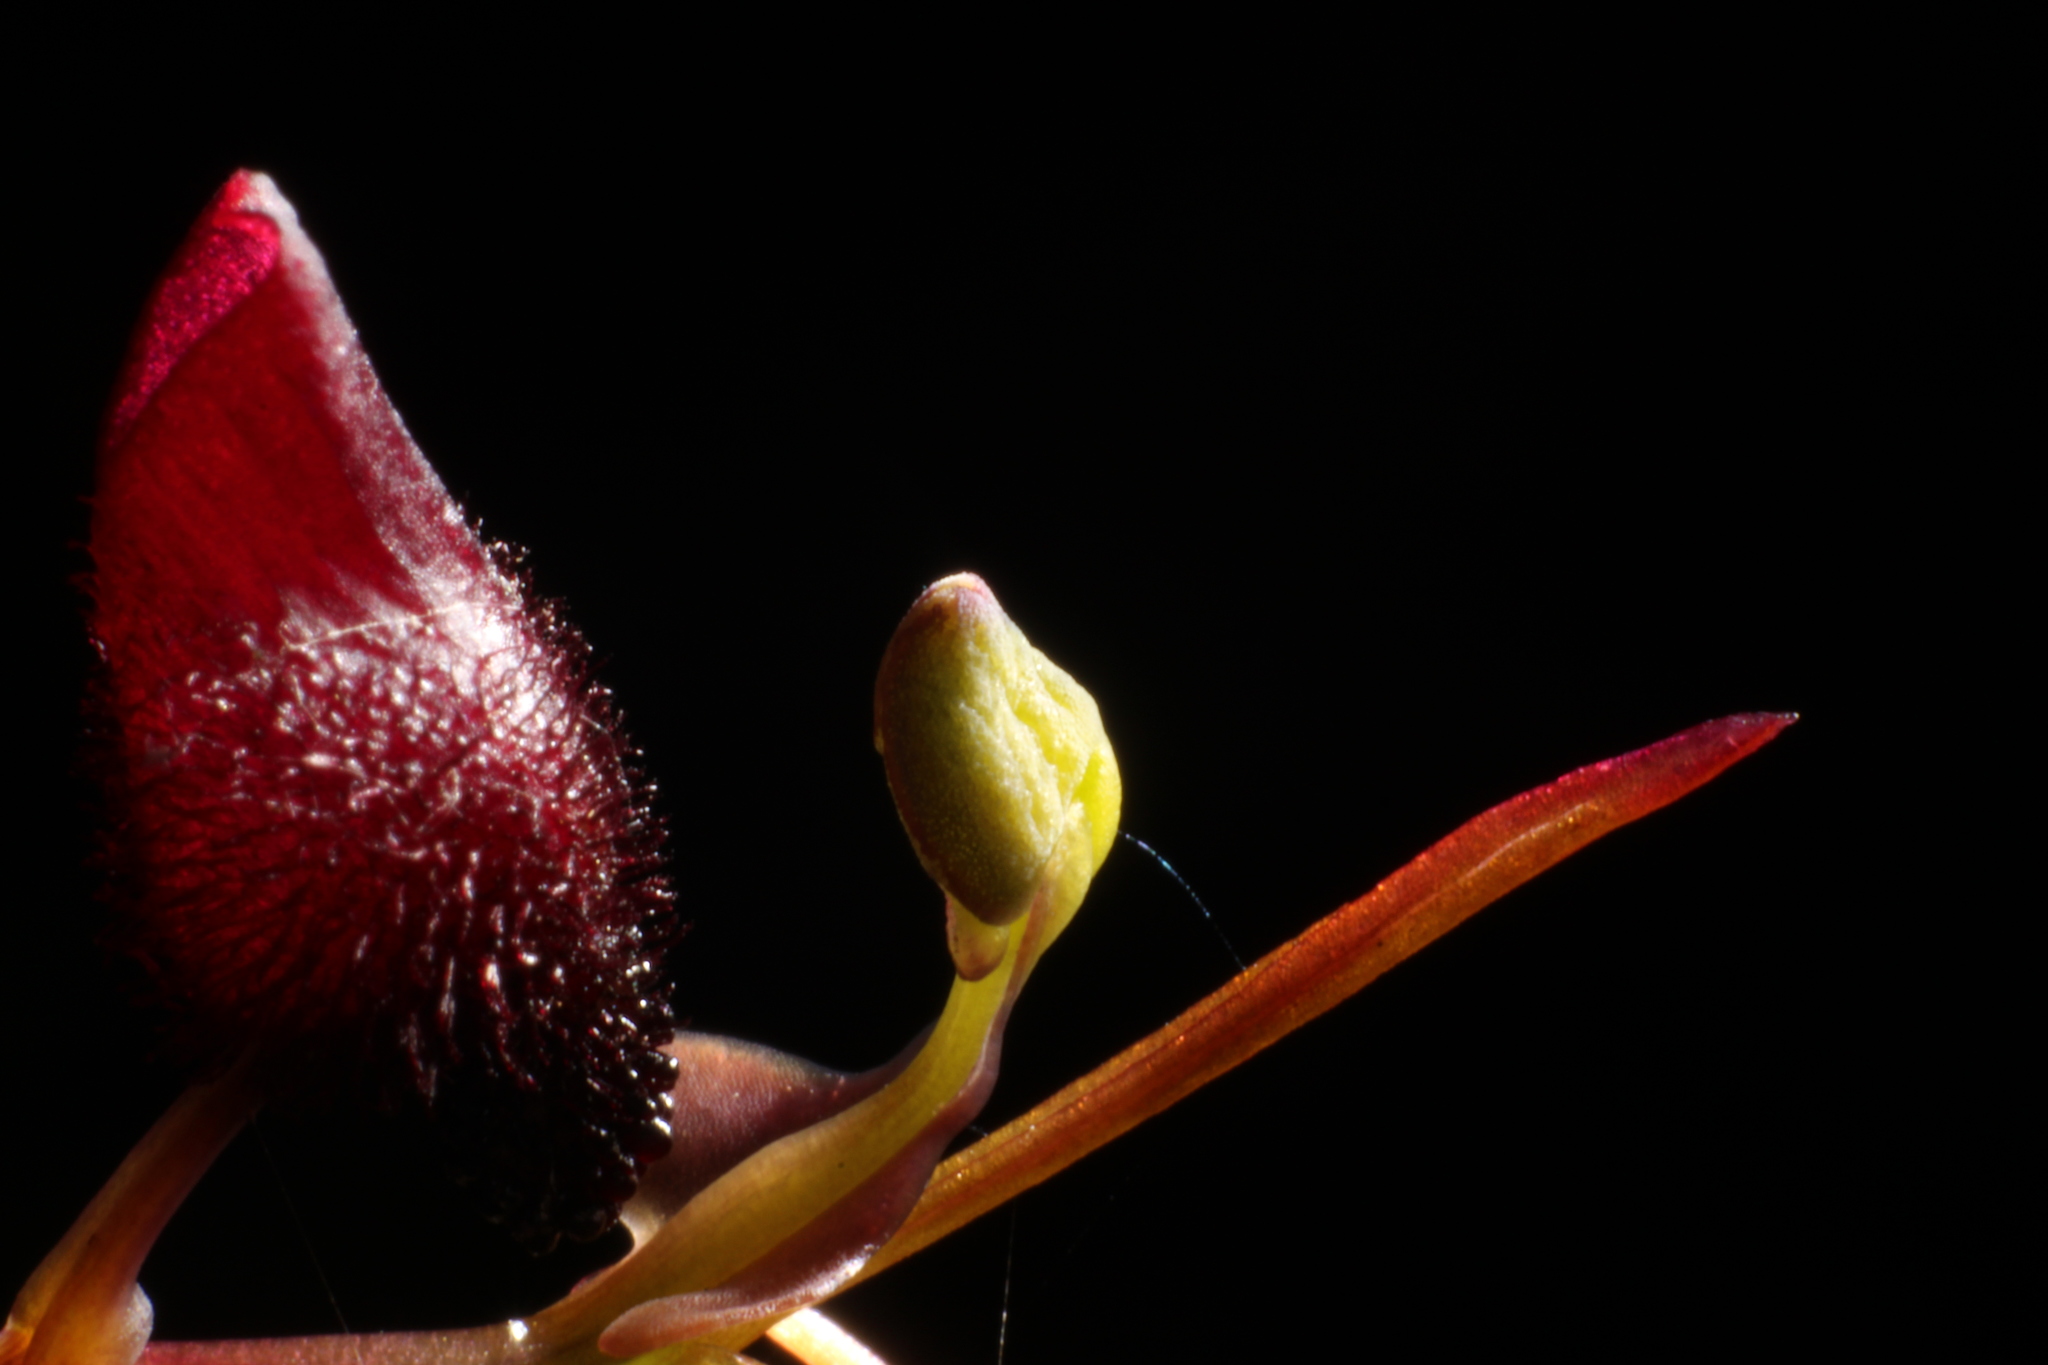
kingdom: Plantae
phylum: Tracheophyta
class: Liliopsida
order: Asparagales
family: Orchidaceae
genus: Drakaea
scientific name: Drakaea glyptodon
